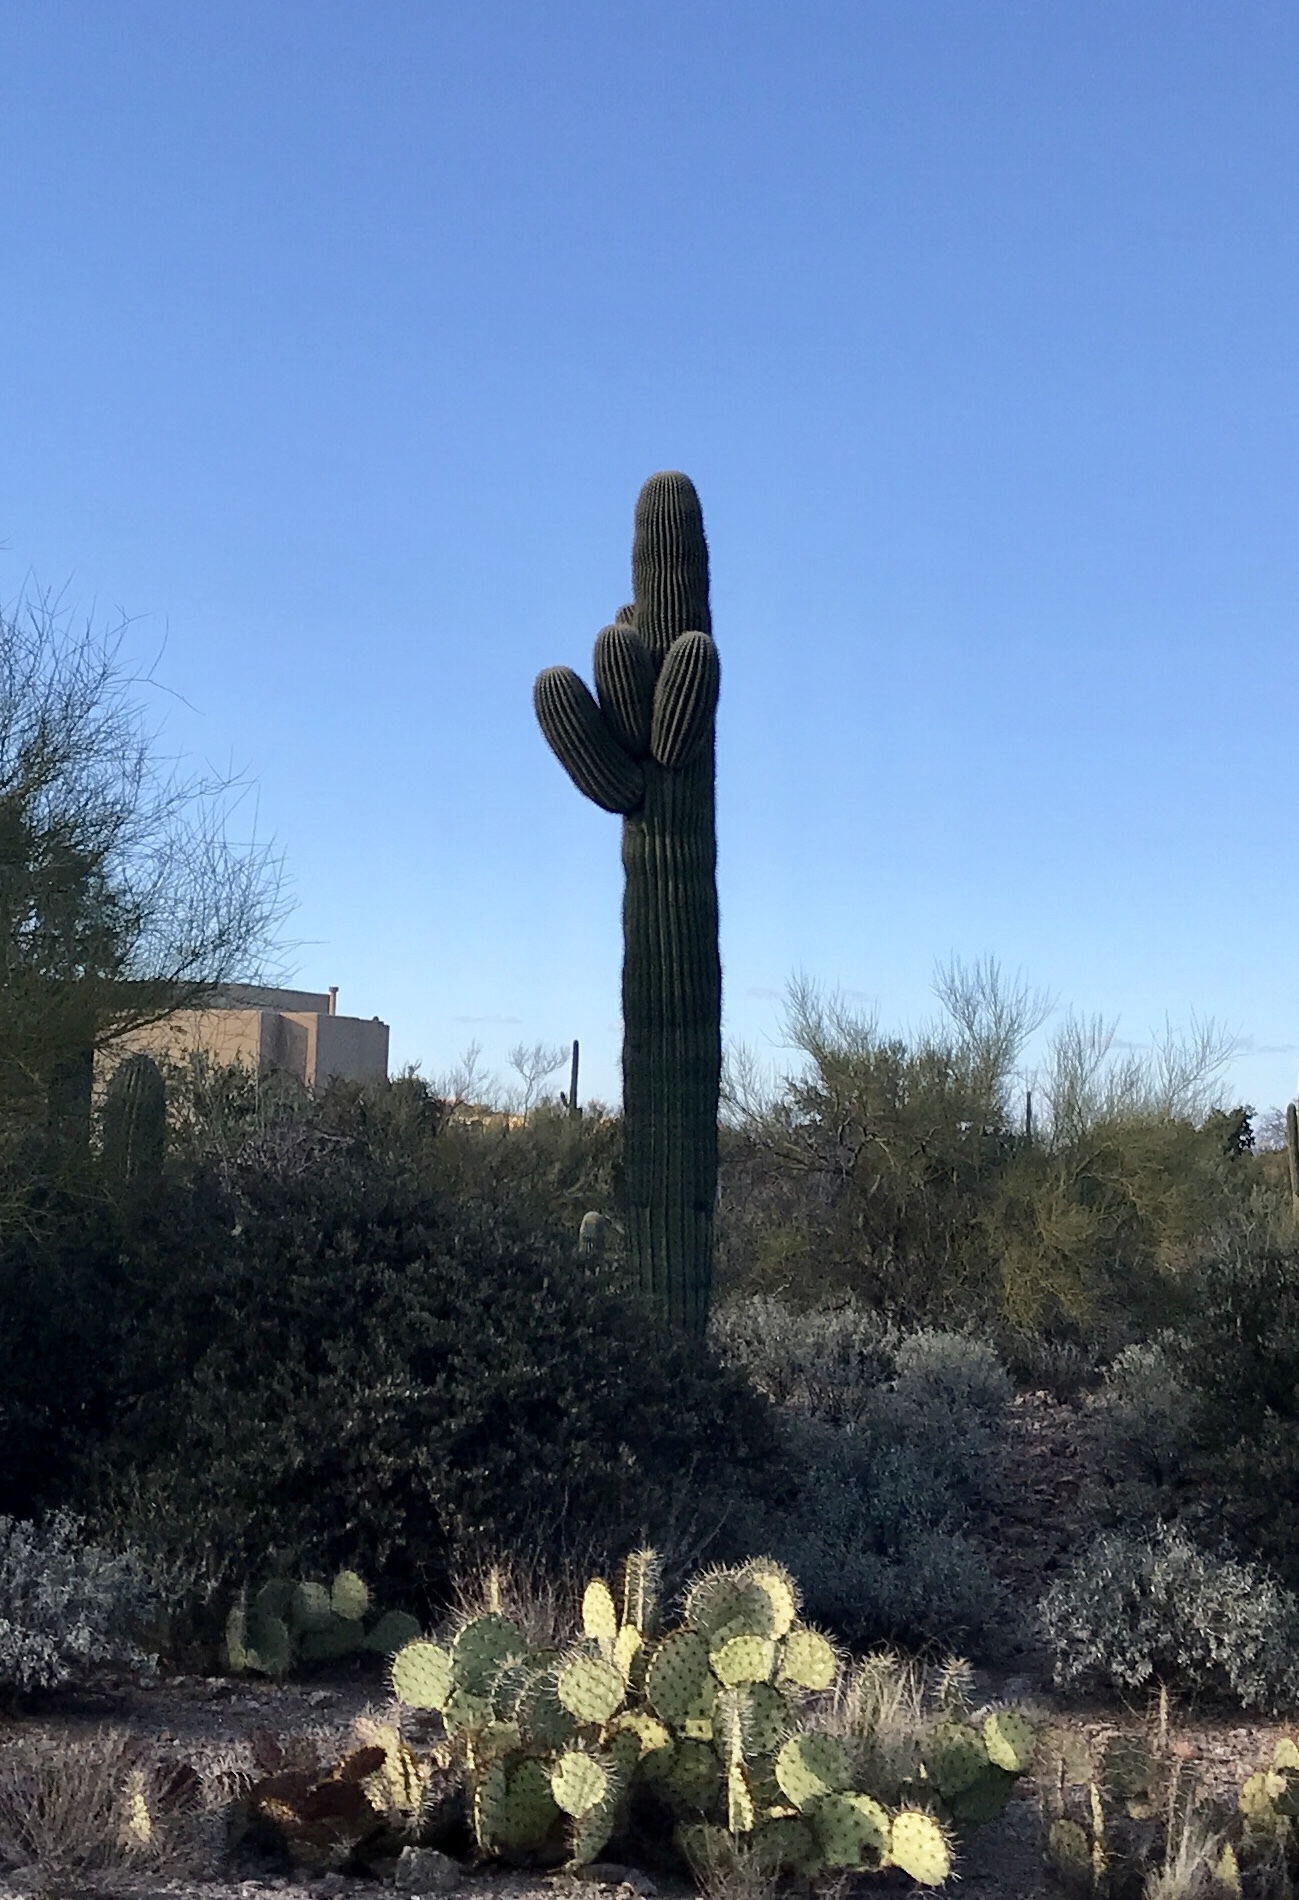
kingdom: Plantae
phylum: Tracheophyta
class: Magnoliopsida
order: Caryophyllales
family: Cactaceae
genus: Carnegiea
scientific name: Carnegiea gigantea
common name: Saguaro
